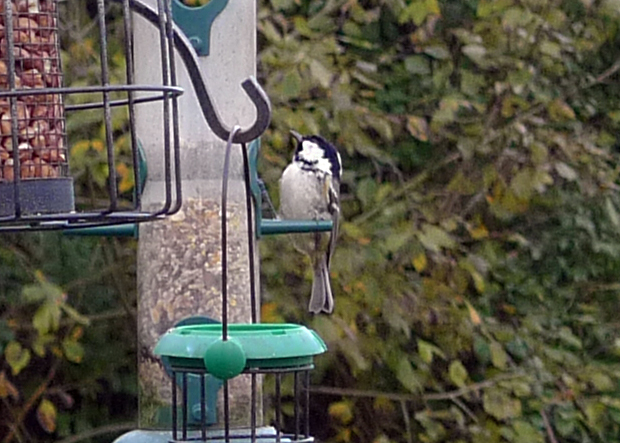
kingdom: Animalia
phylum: Chordata
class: Aves
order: Passeriformes
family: Paridae
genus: Periparus
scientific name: Periparus ater
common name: Coal tit
